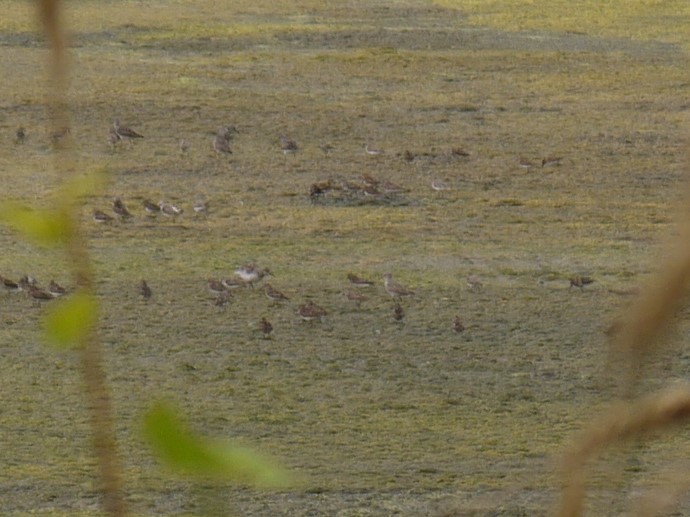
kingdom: Animalia
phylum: Chordata
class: Aves
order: Charadriiformes
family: Scolopacidae
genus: Calidris
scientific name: Calidris minutilla
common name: Least sandpiper
